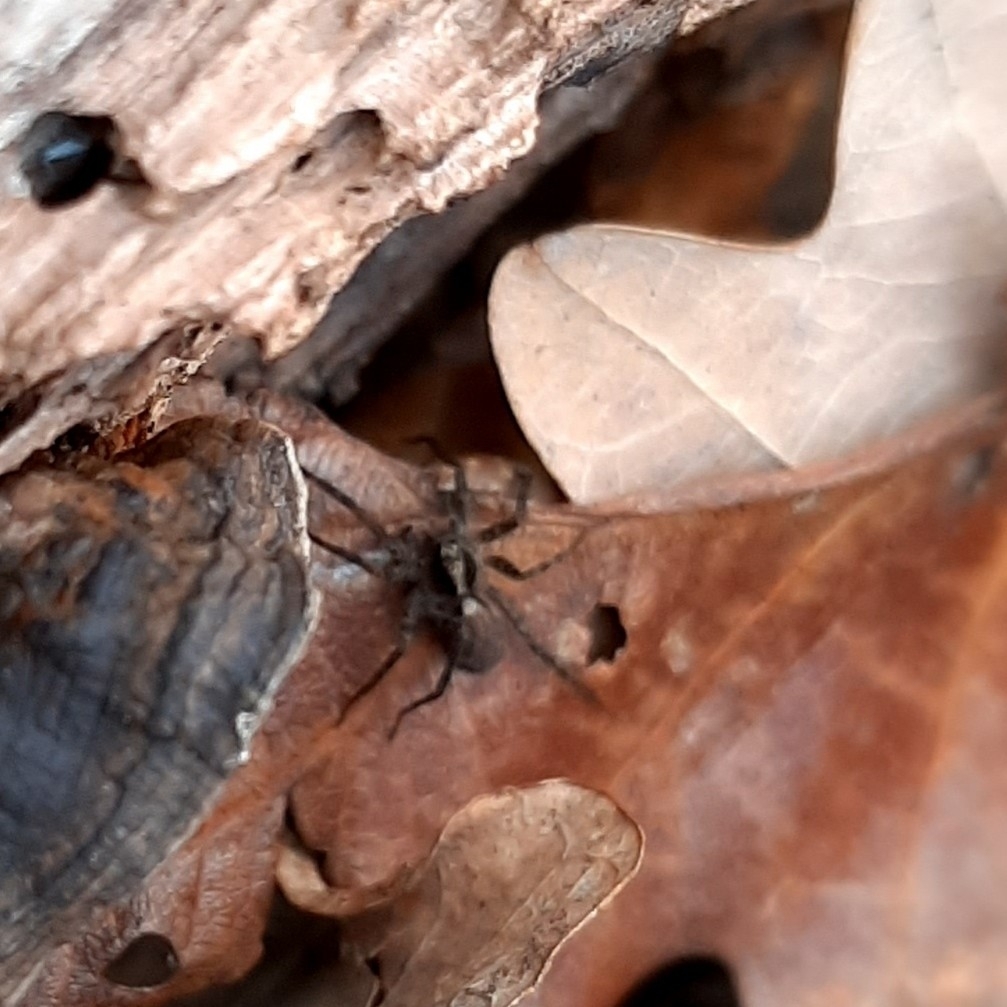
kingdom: Animalia
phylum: Arthropoda
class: Arachnida
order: Araneae
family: Lycosidae
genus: Pardosa
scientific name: Pardosa
